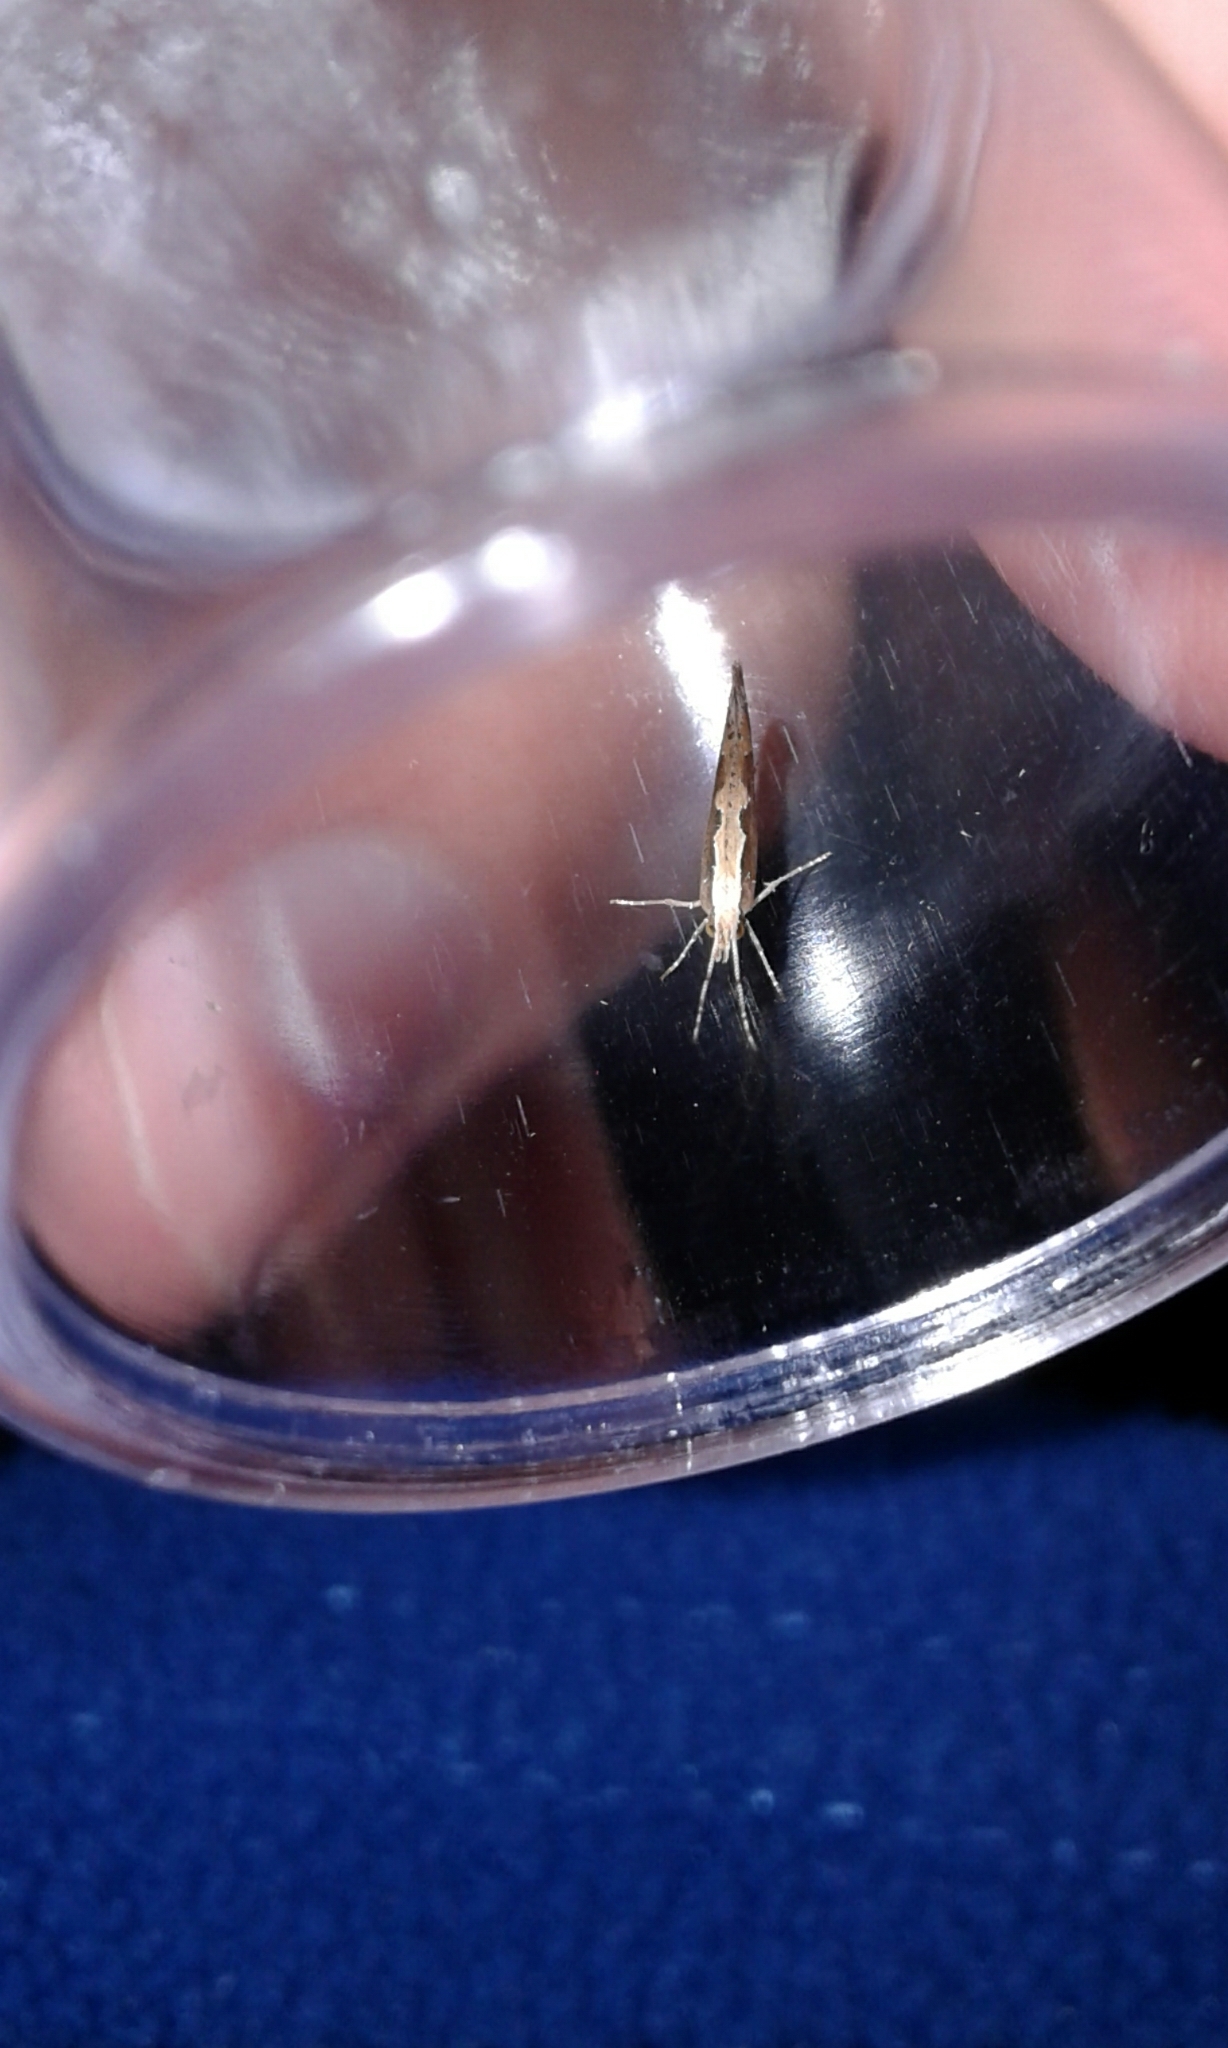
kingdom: Animalia
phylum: Arthropoda
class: Insecta
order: Lepidoptera
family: Plutellidae
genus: Plutella
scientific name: Plutella xylostella
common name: Diamond-back moth
